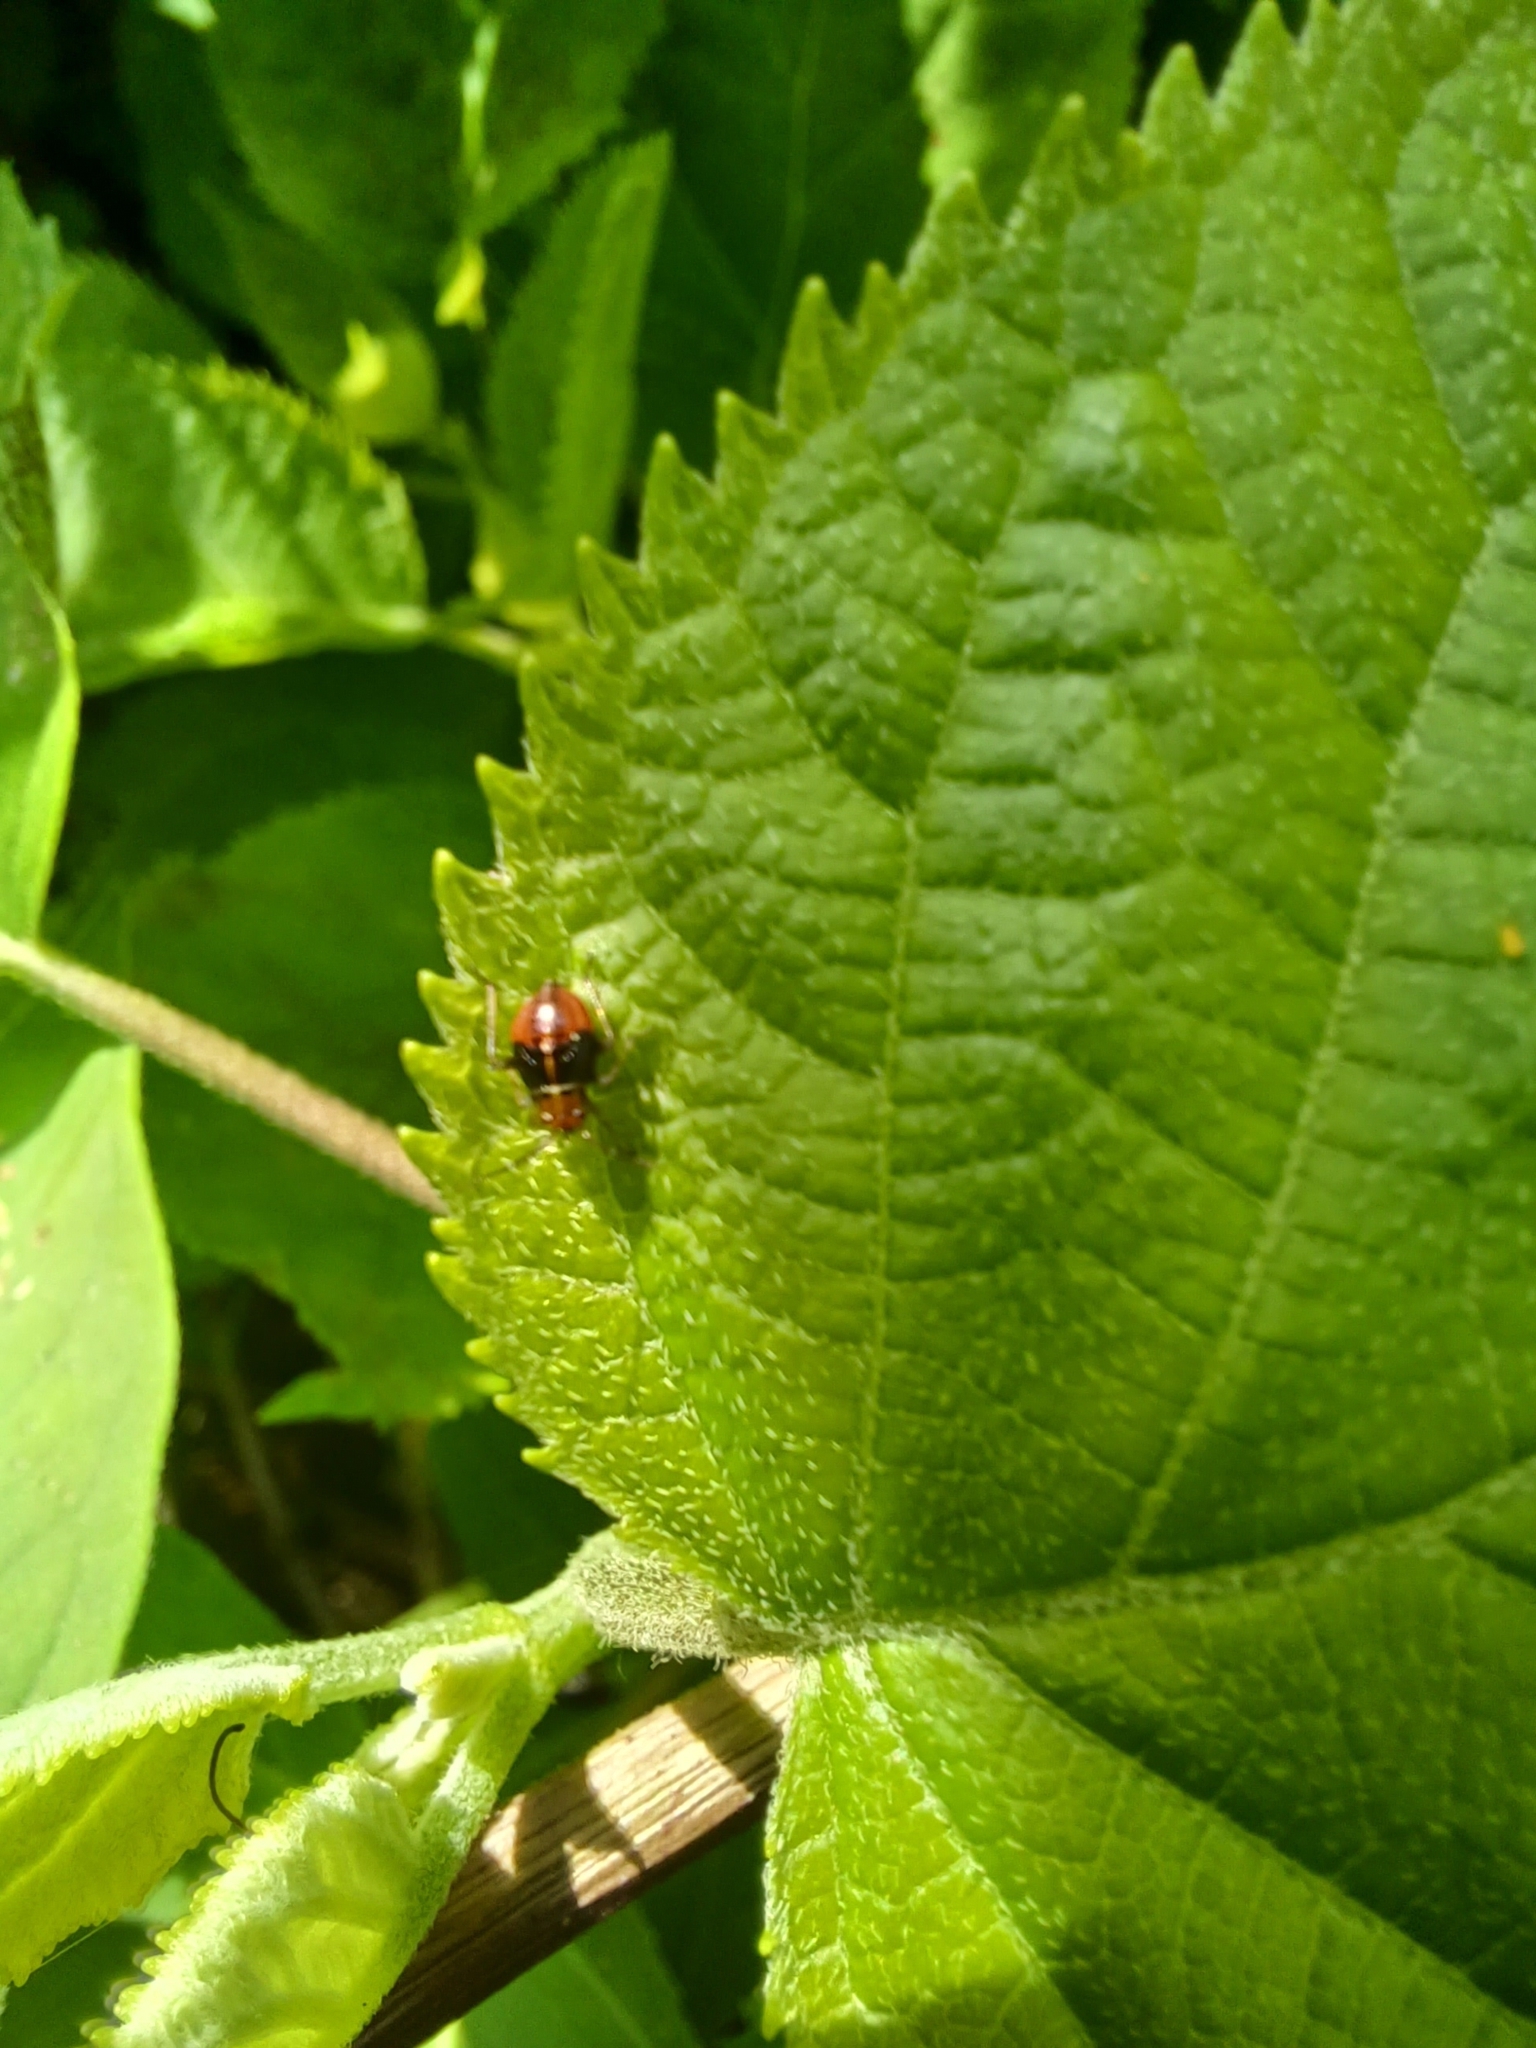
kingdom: Animalia
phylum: Arthropoda
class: Insecta
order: Hemiptera
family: Miridae
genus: Poecilocapsus
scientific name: Poecilocapsus lineatus
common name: Four-lined plant bug
